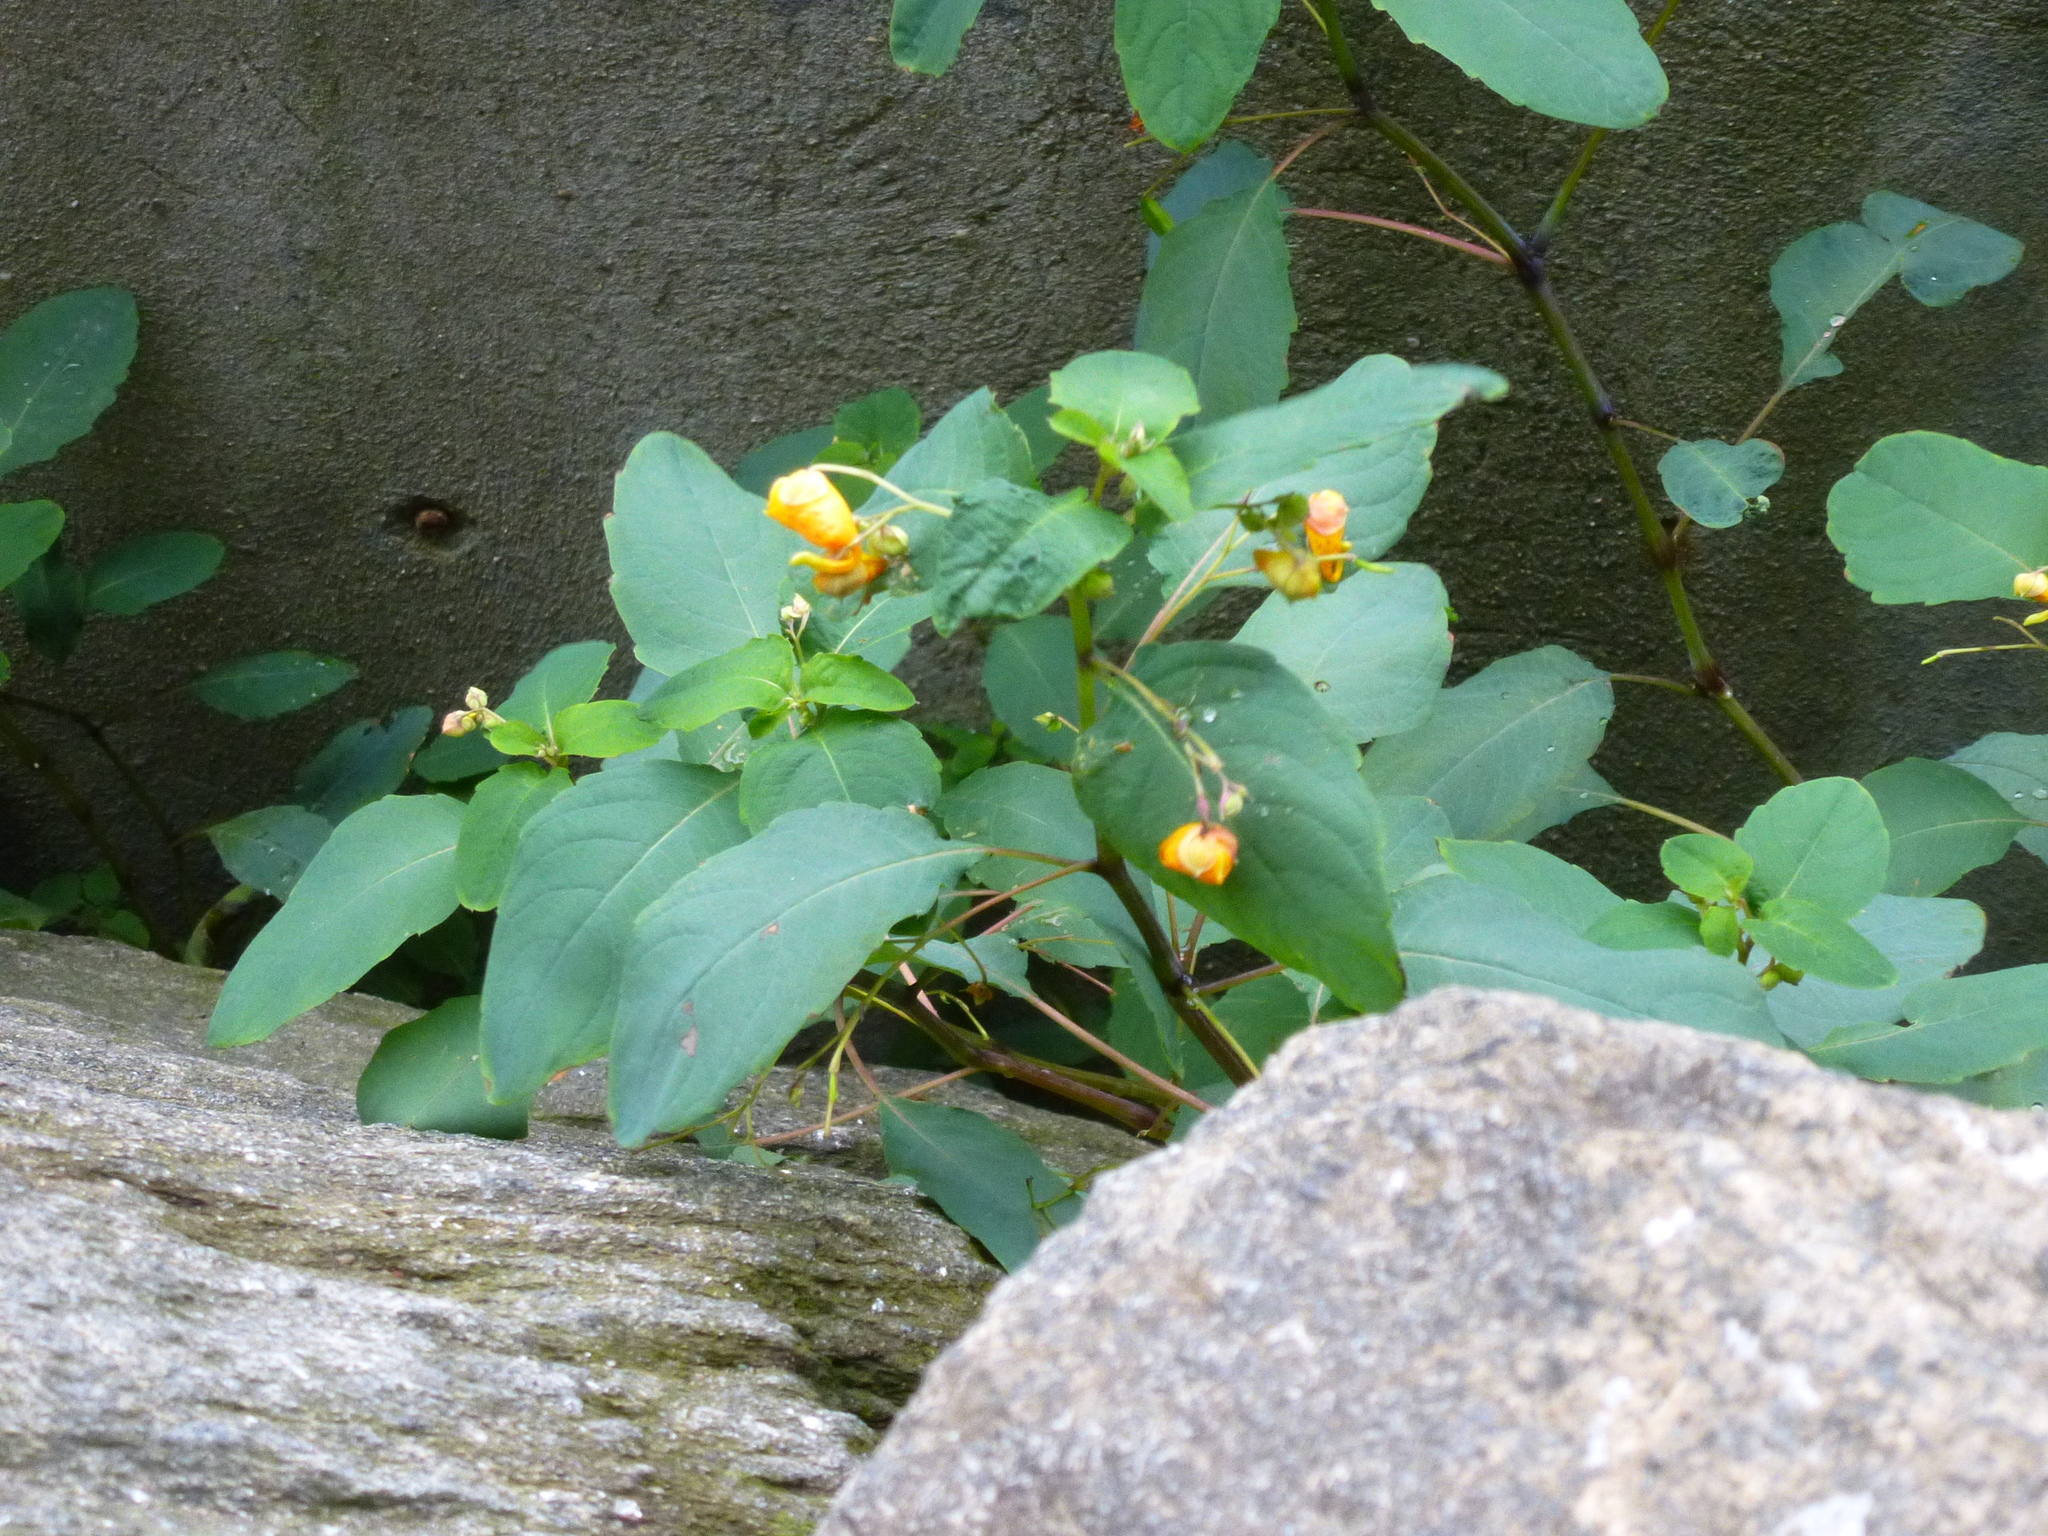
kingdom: Plantae
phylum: Tracheophyta
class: Magnoliopsida
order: Ericales
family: Balsaminaceae
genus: Impatiens
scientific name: Impatiens capensis
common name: Orange balsam
